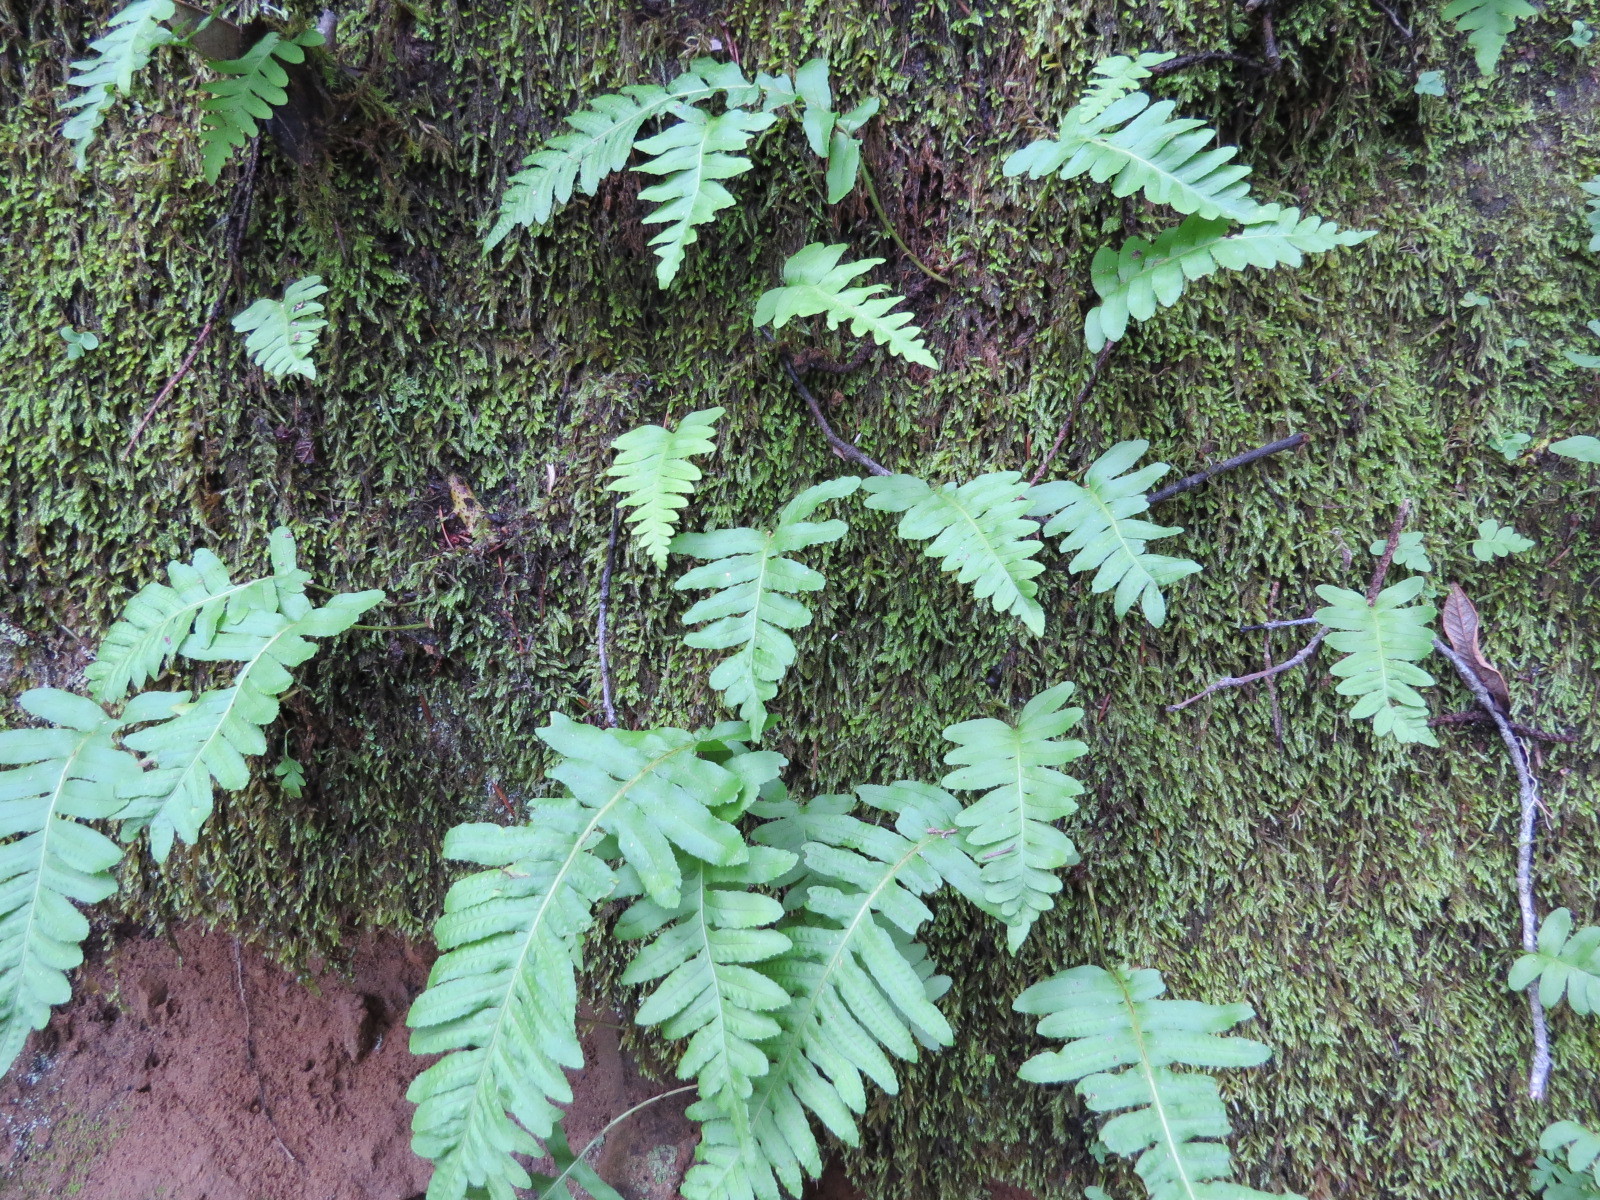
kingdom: Plantae
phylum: Tracheophyta
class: Polypodiopsida
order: Polypodiales
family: Polypodiaceae
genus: Polypodium
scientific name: Polypodium californicum
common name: California polypody
